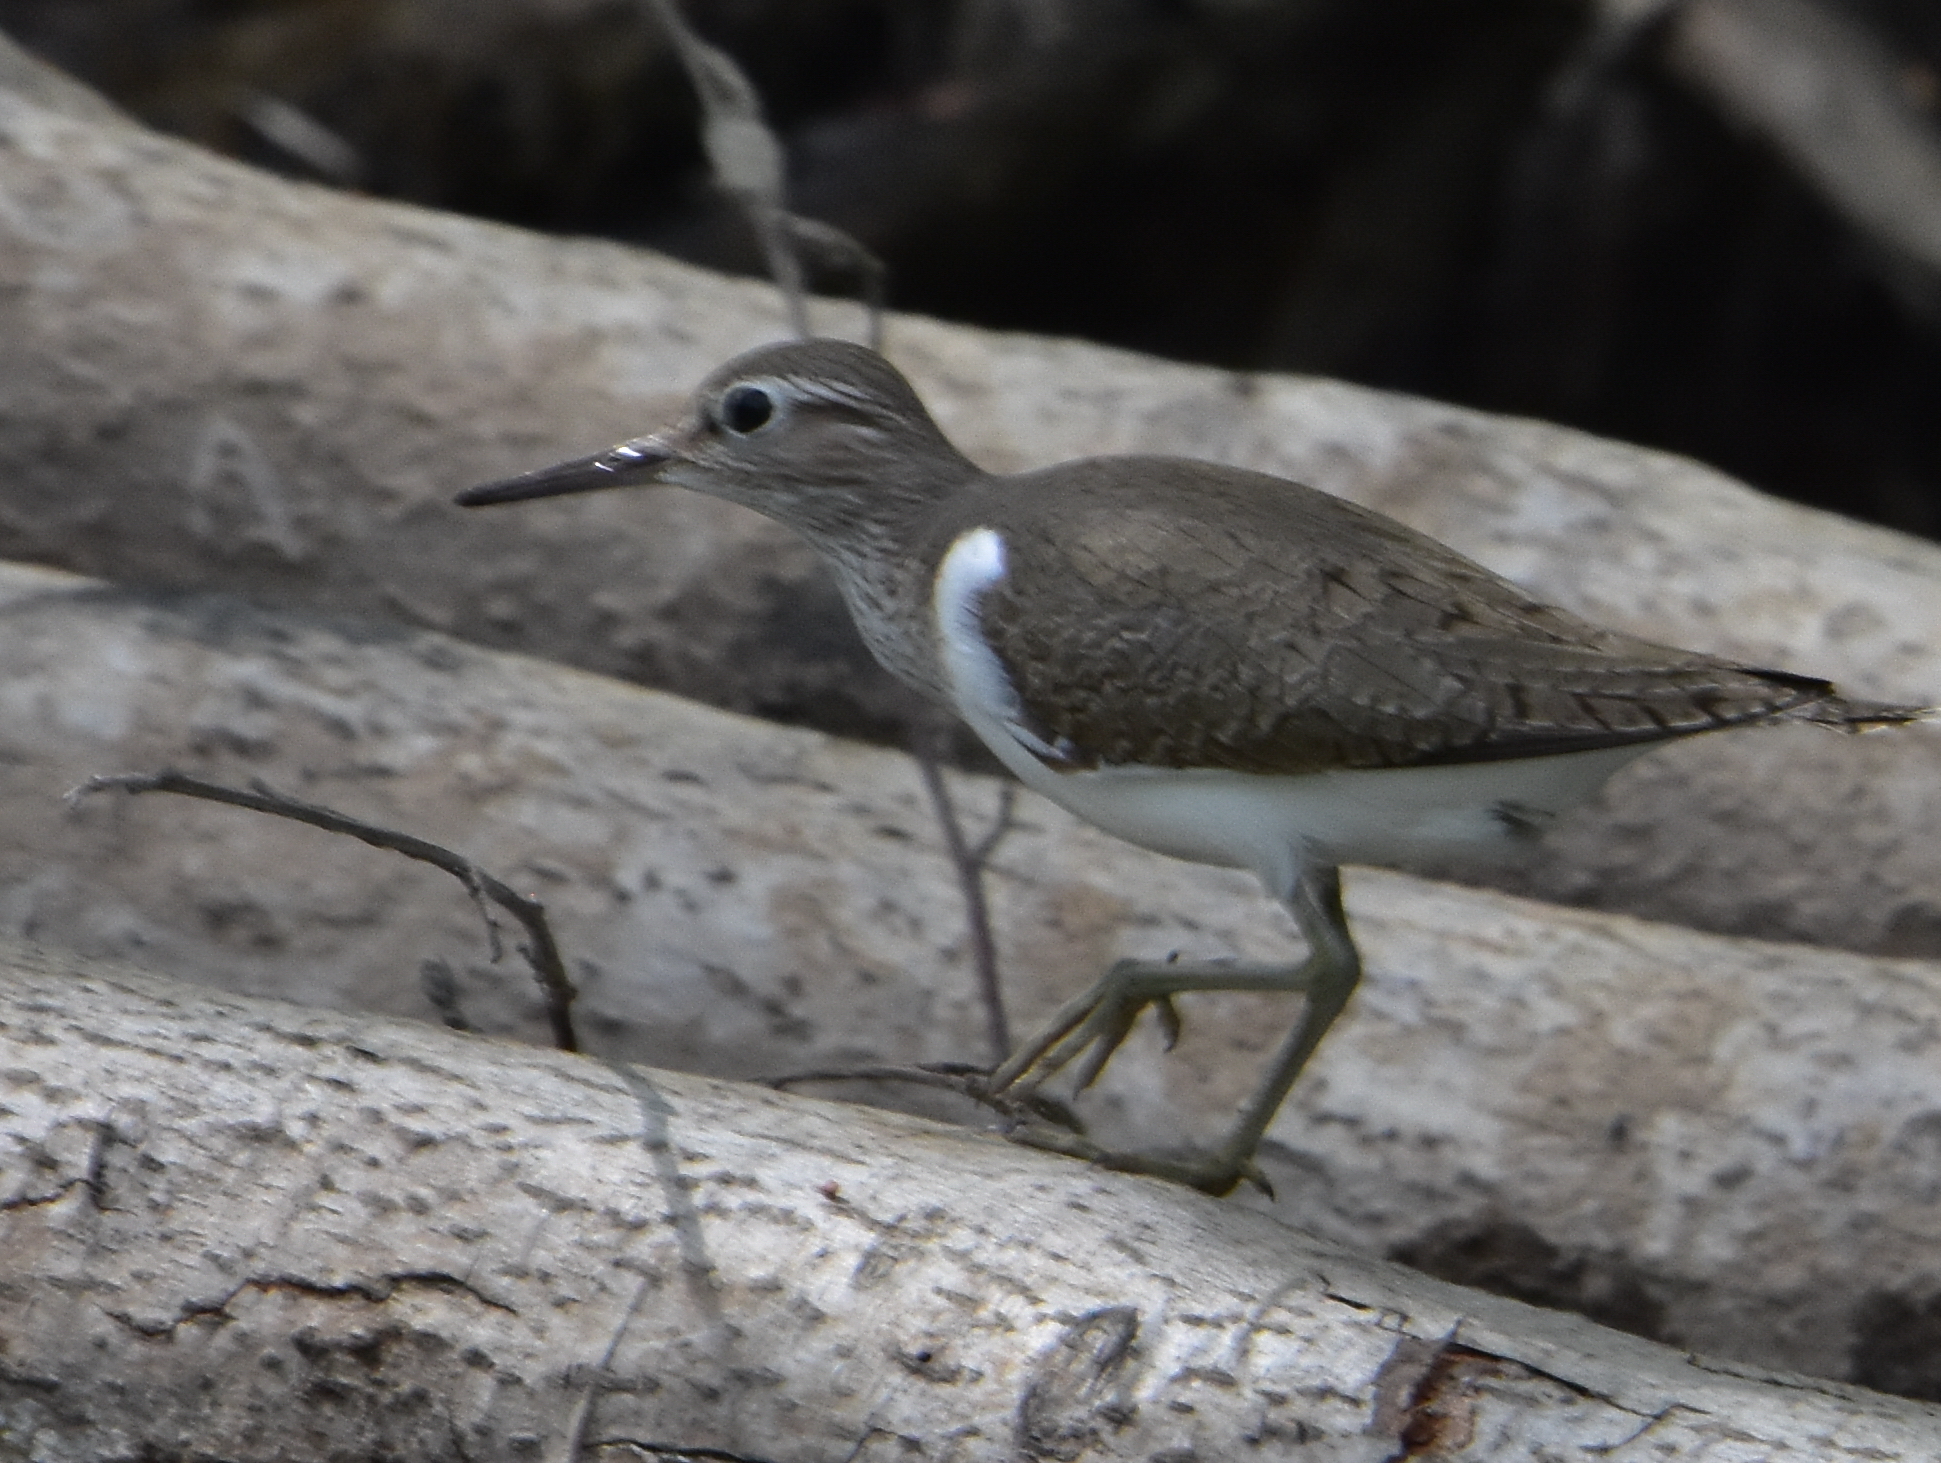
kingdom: Animalia
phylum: Chordata
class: Aves
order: Charadriiformes
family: Scolopacidae
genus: Actitis
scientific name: Actitis hypoleucos
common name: Common sandpiper
